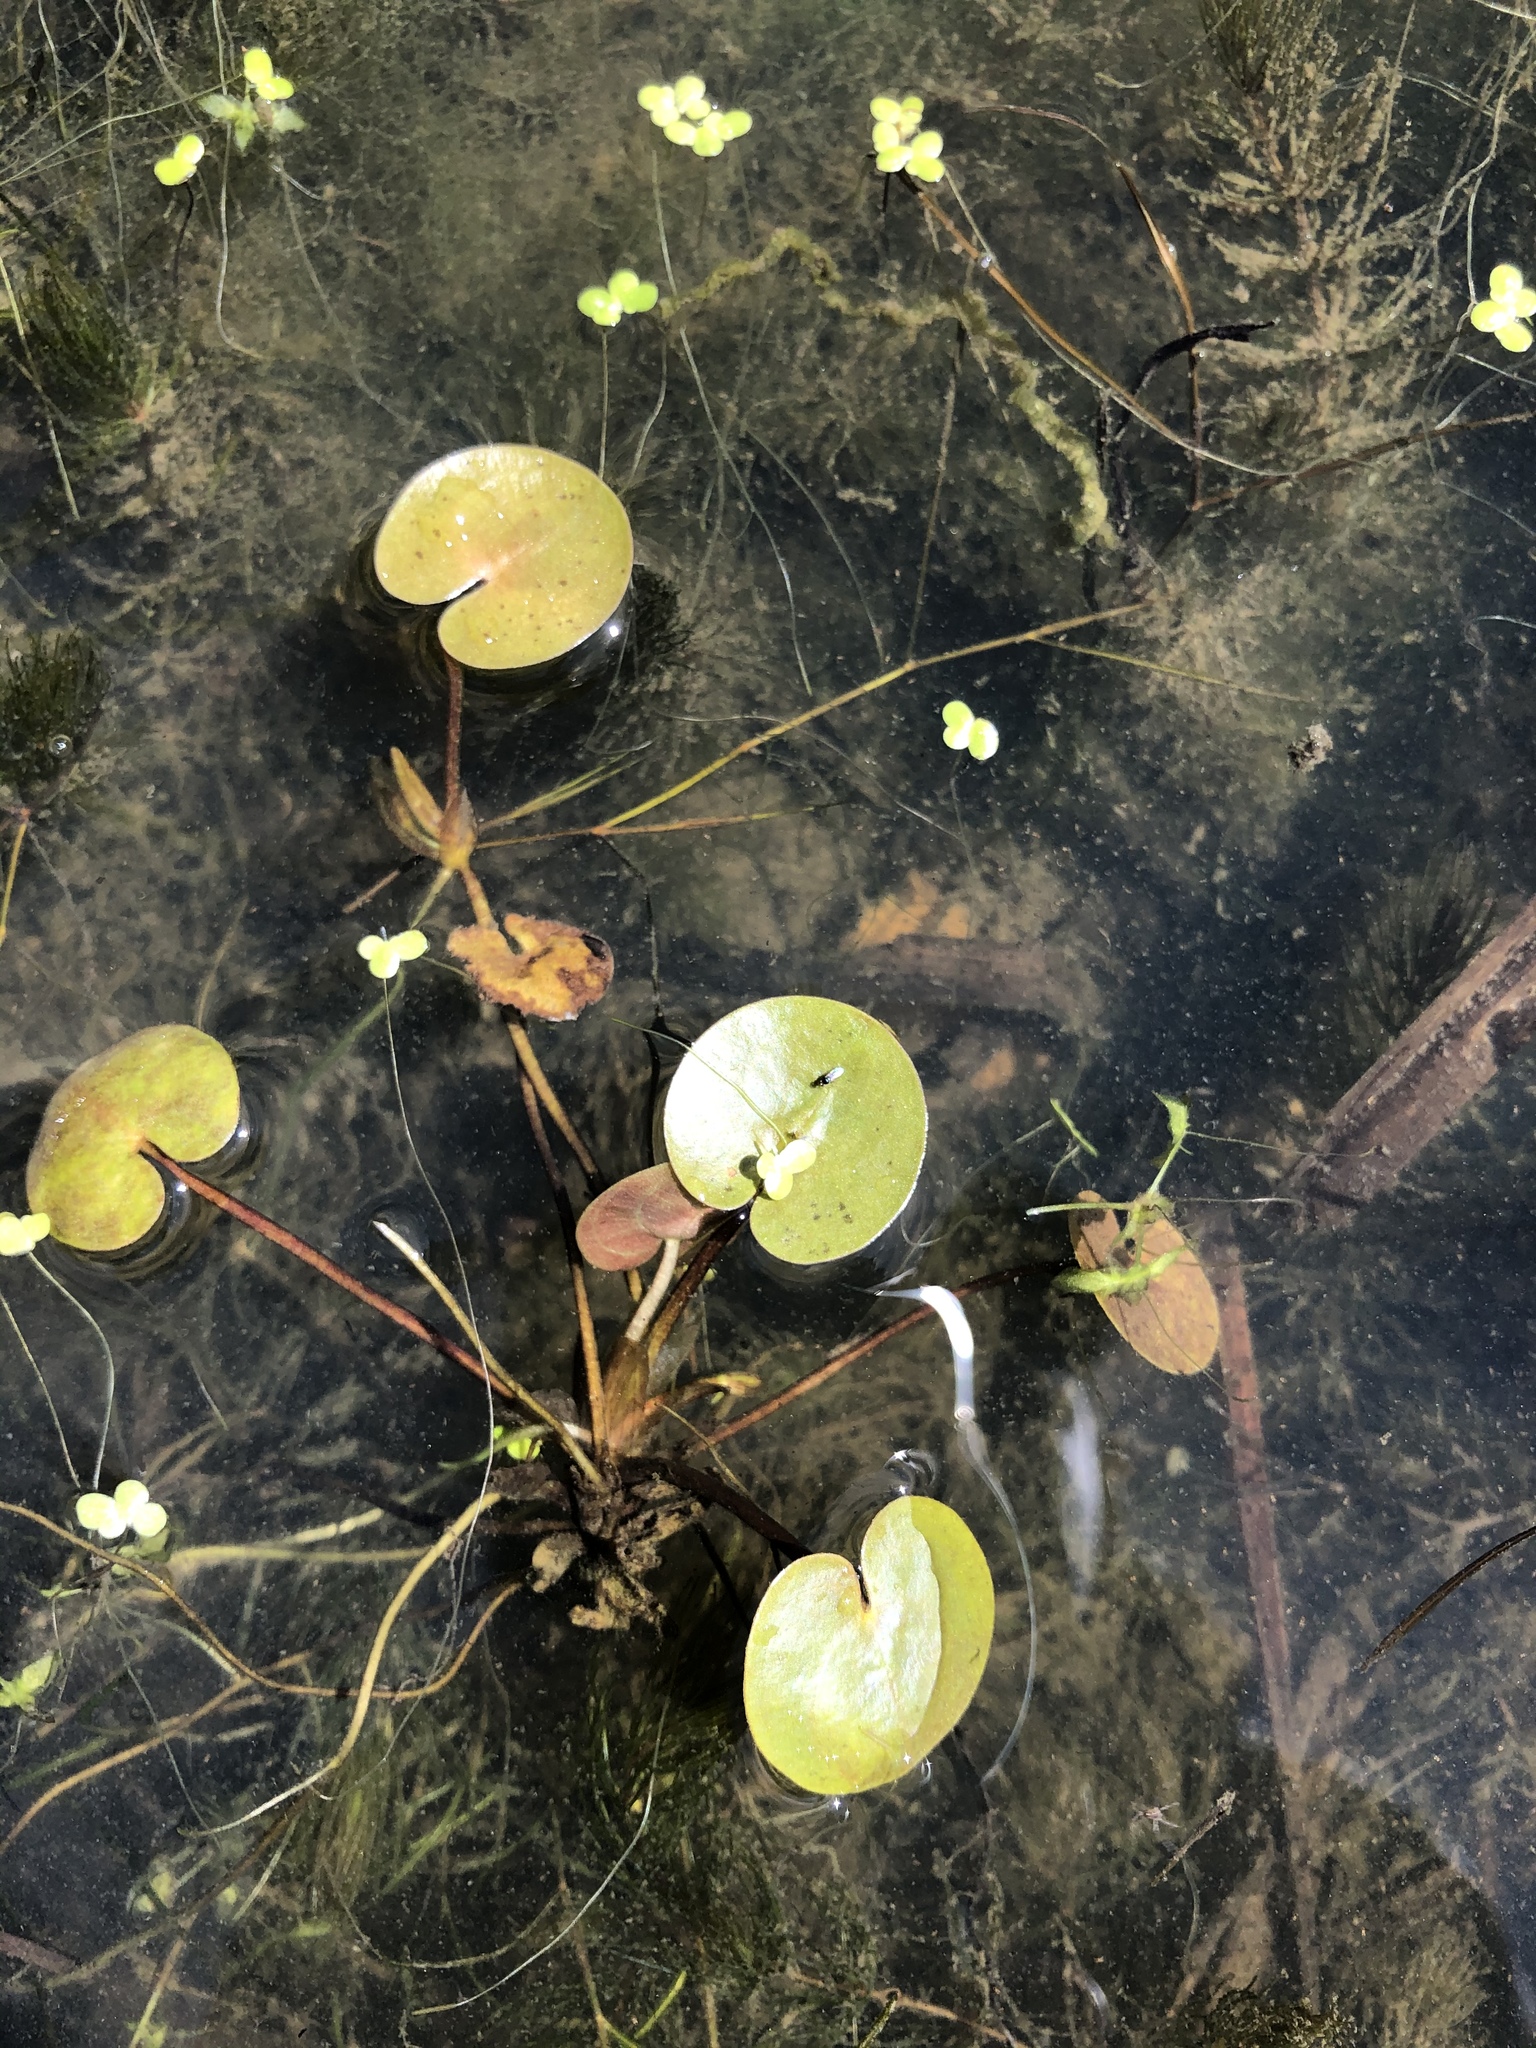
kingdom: Plantae
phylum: Tracheophyta
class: Liliopsida
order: Alismatales
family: Hydrocharitaceae
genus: Hydrocharis
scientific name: Hydrocharis morsus-ranae
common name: Frogbit
